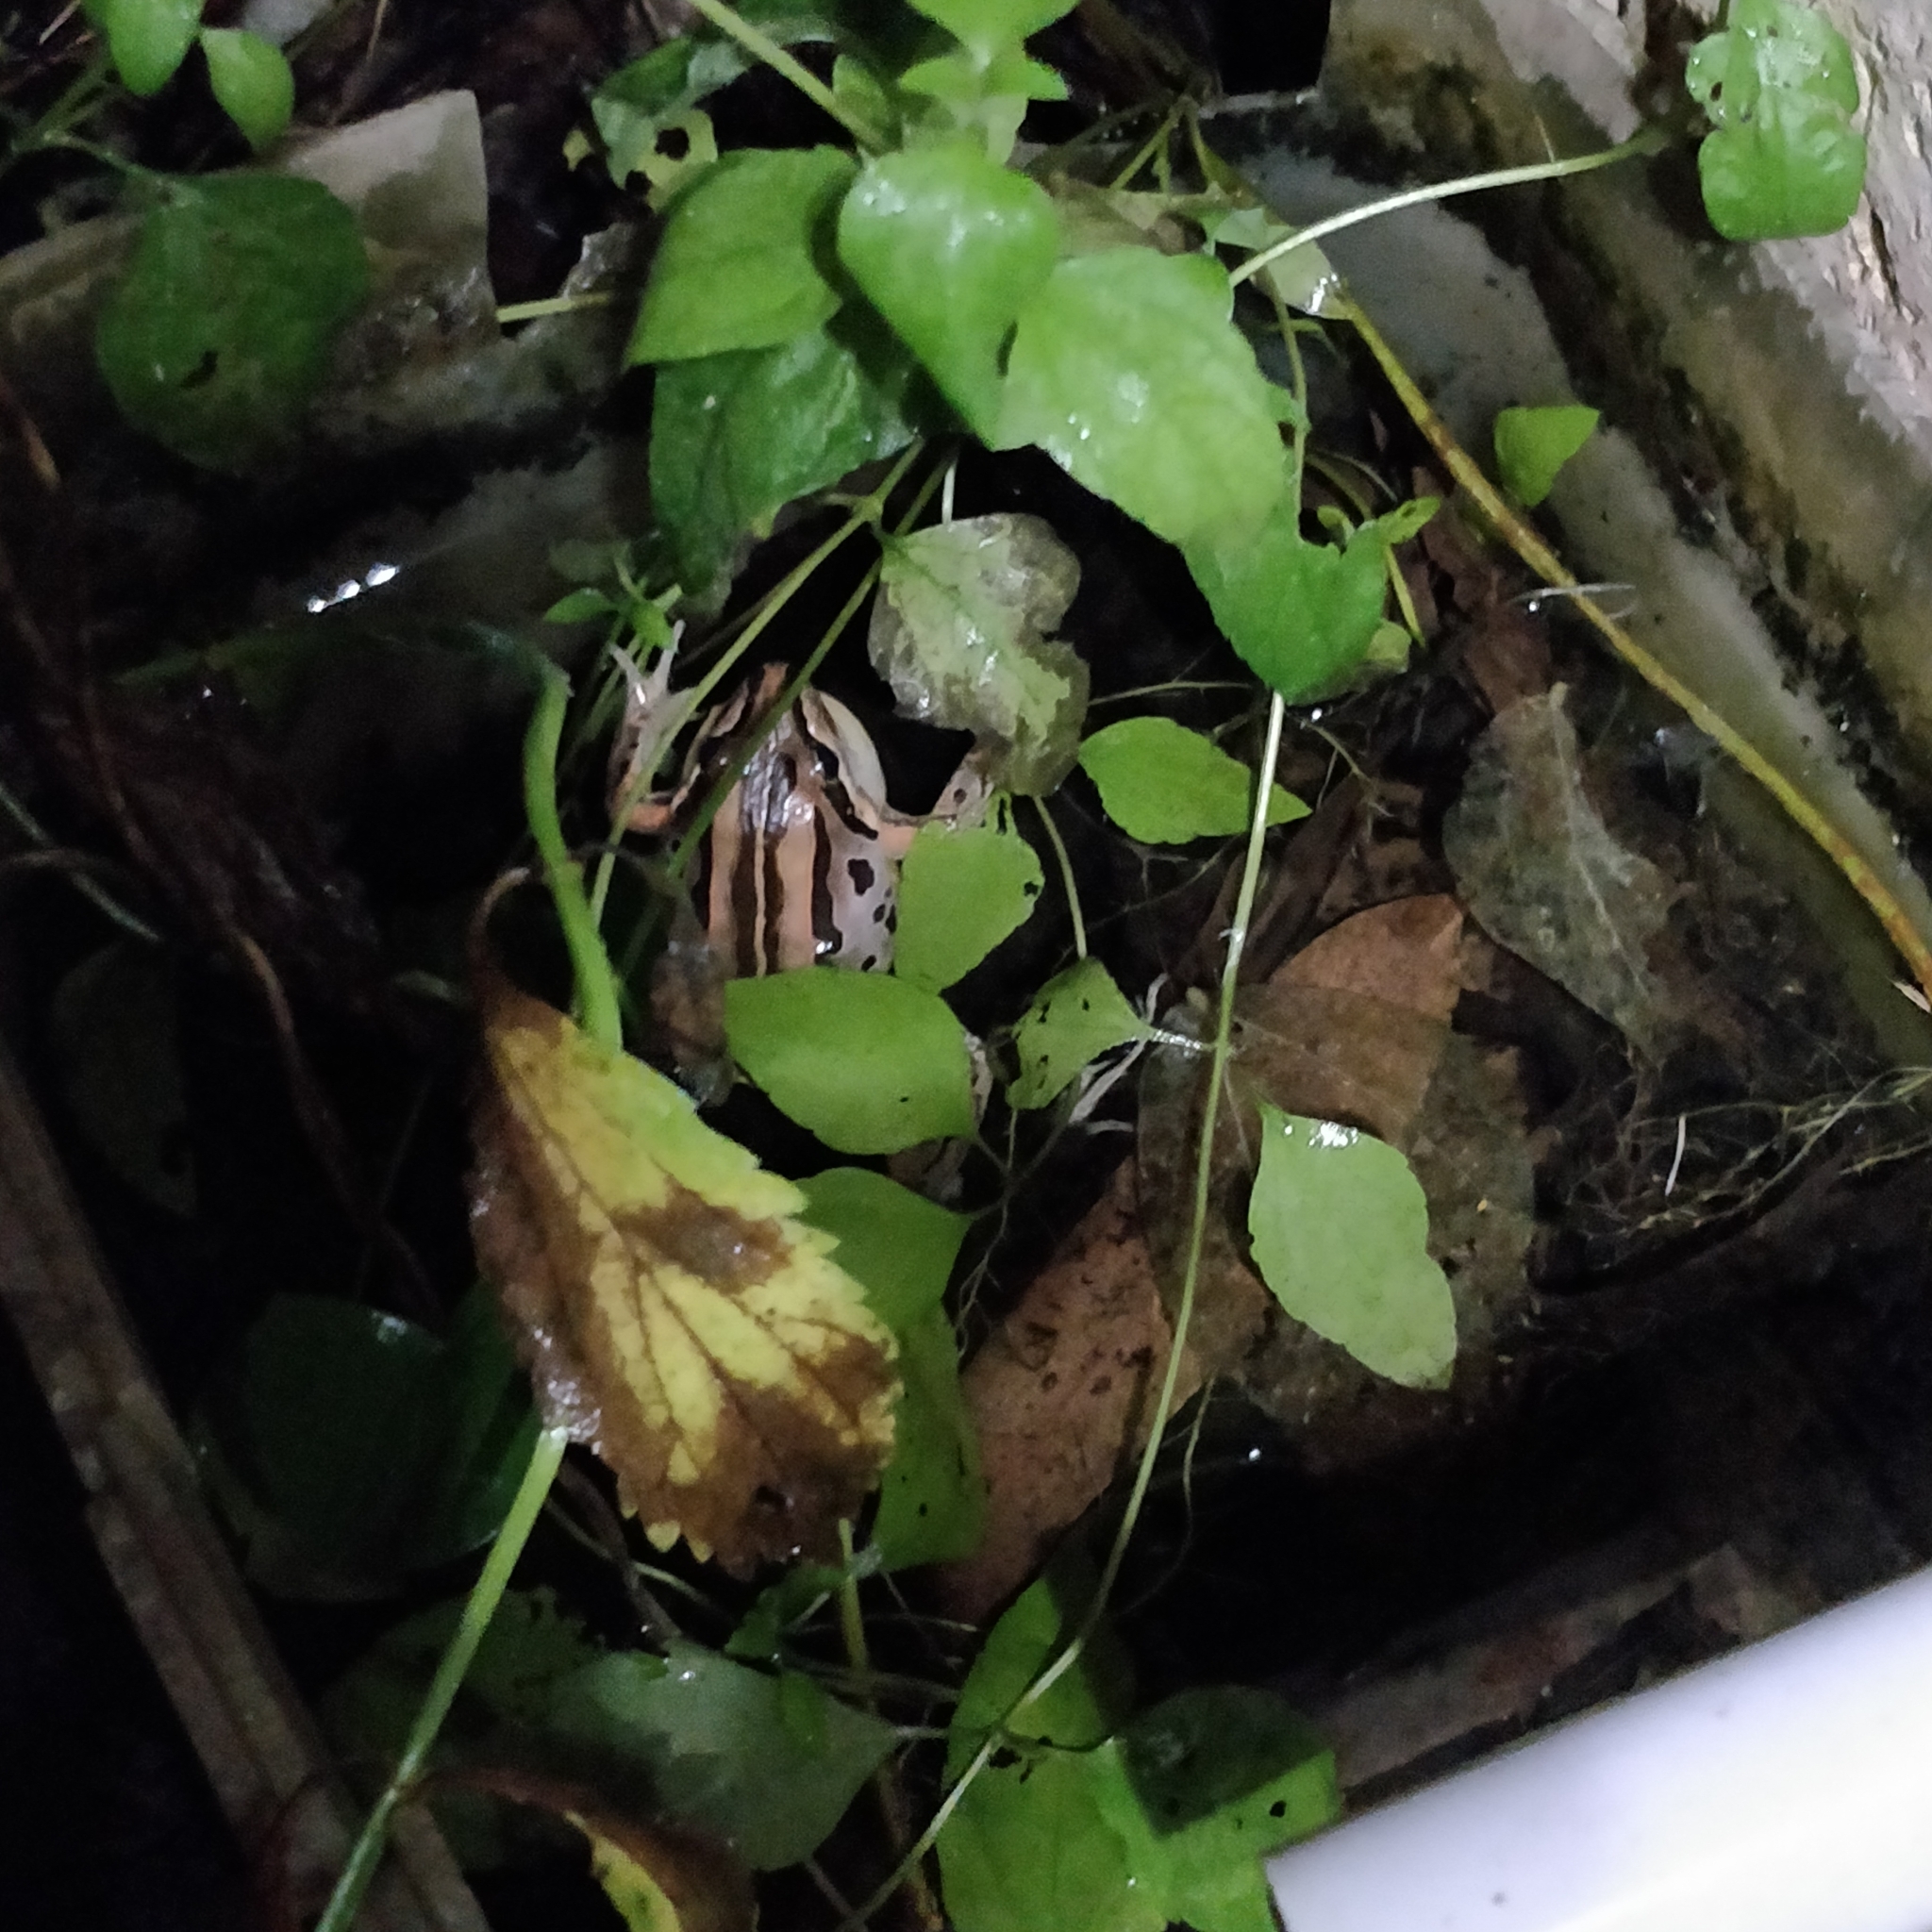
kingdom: Animalia
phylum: Chordata
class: Amphibia
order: Anura
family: Limnodynastidae
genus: Limnodynastes
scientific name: Limnodynastes peronii
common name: Brown frog
